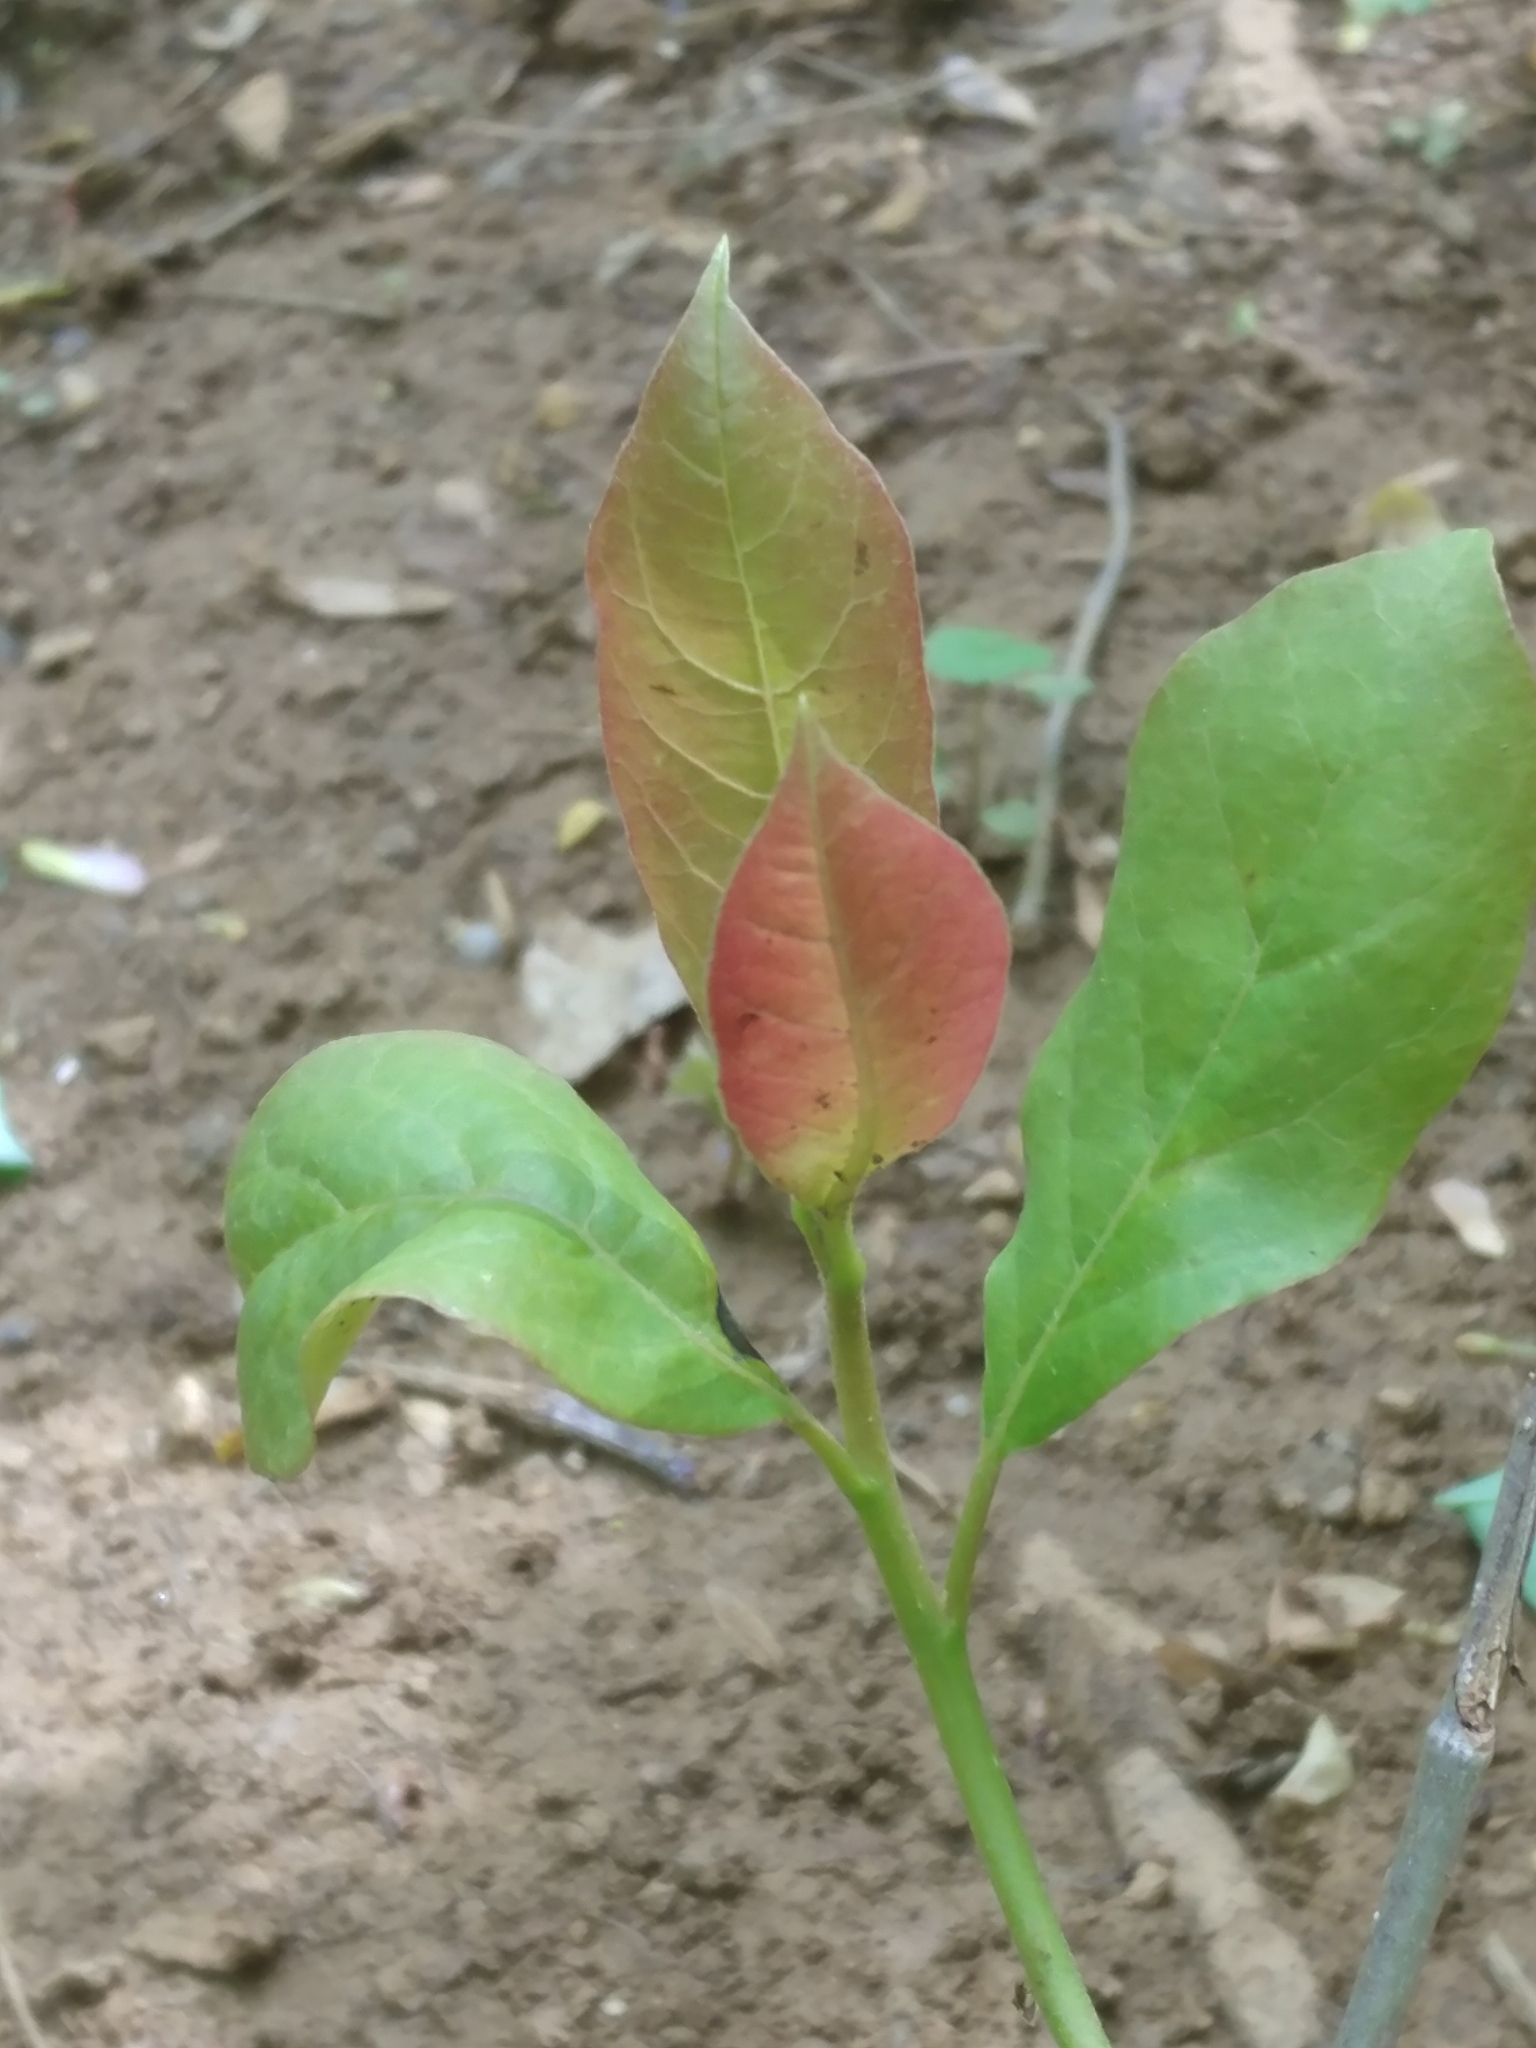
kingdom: Plantae
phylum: Tracheophyta
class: Magnoliopsida
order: Cornales
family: Nyssaceae
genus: Nyssa
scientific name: Nyssa sylvatica
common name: Black tupelo
